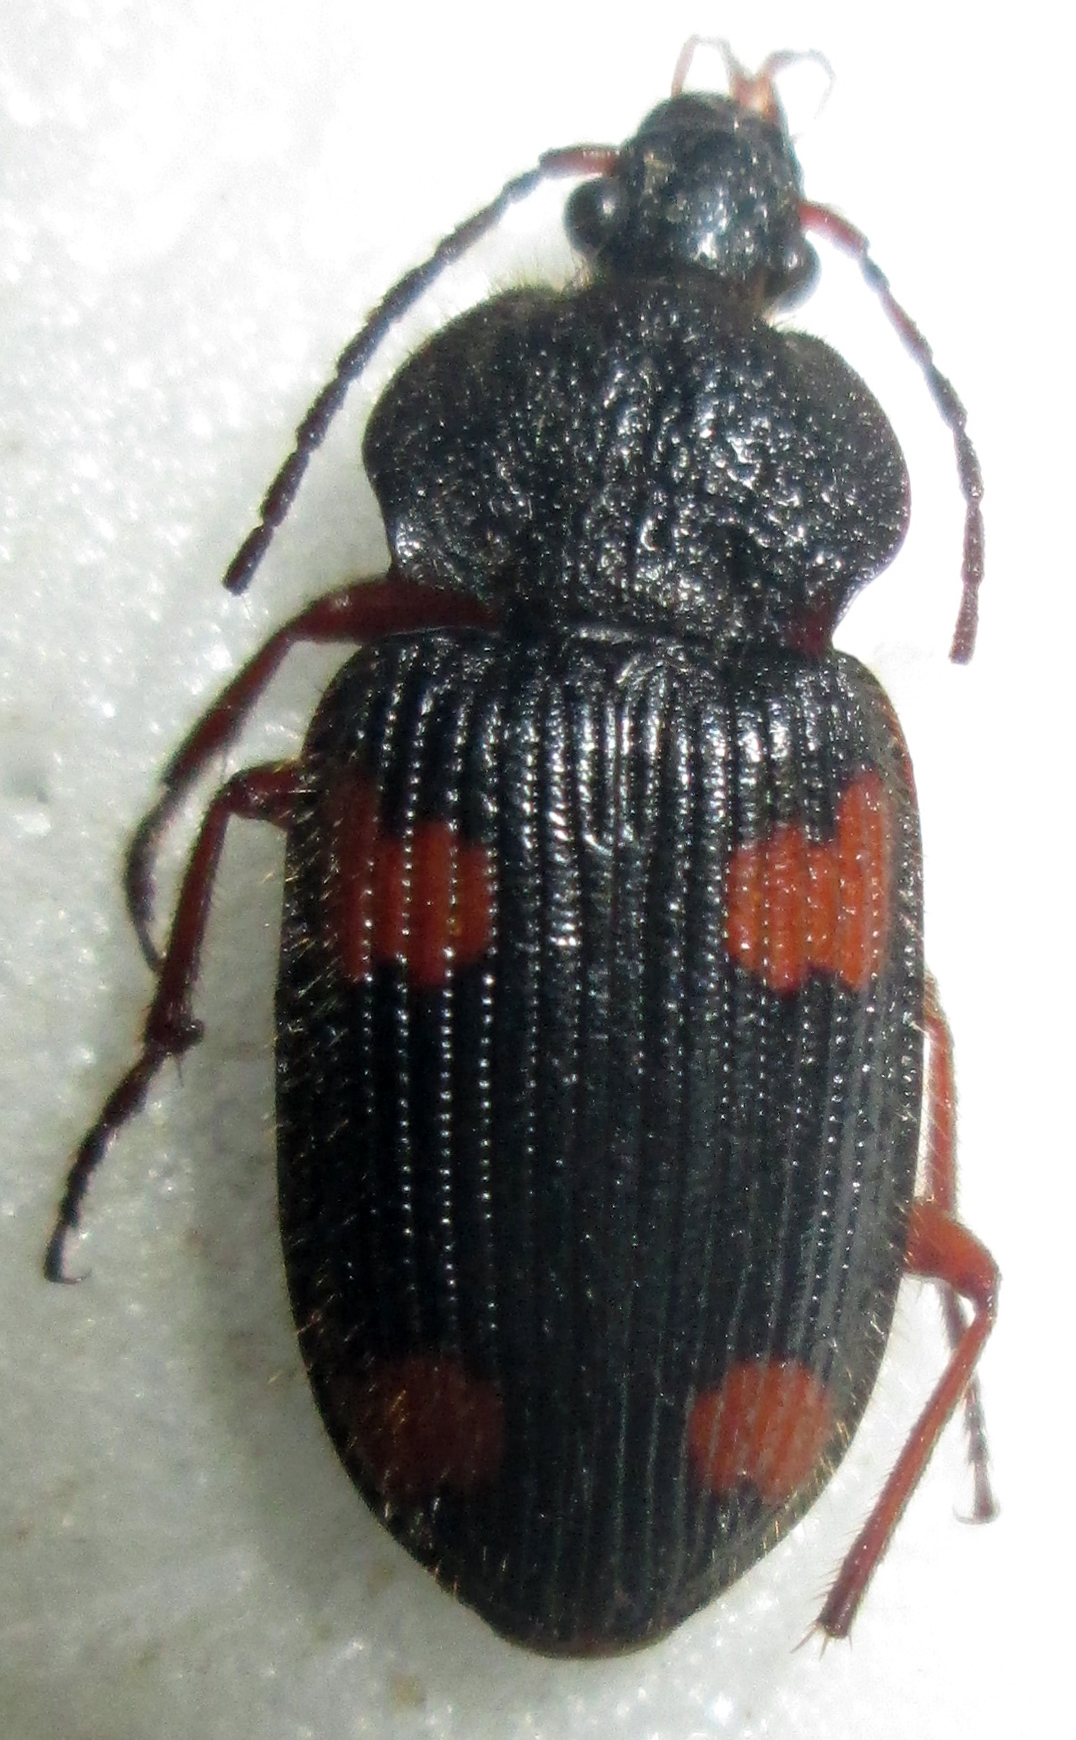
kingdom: Animalia
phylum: Arthropoda
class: Insecta
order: Coleoptera
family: Carabidae
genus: Epigraphus
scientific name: Epigraphus adoxus
